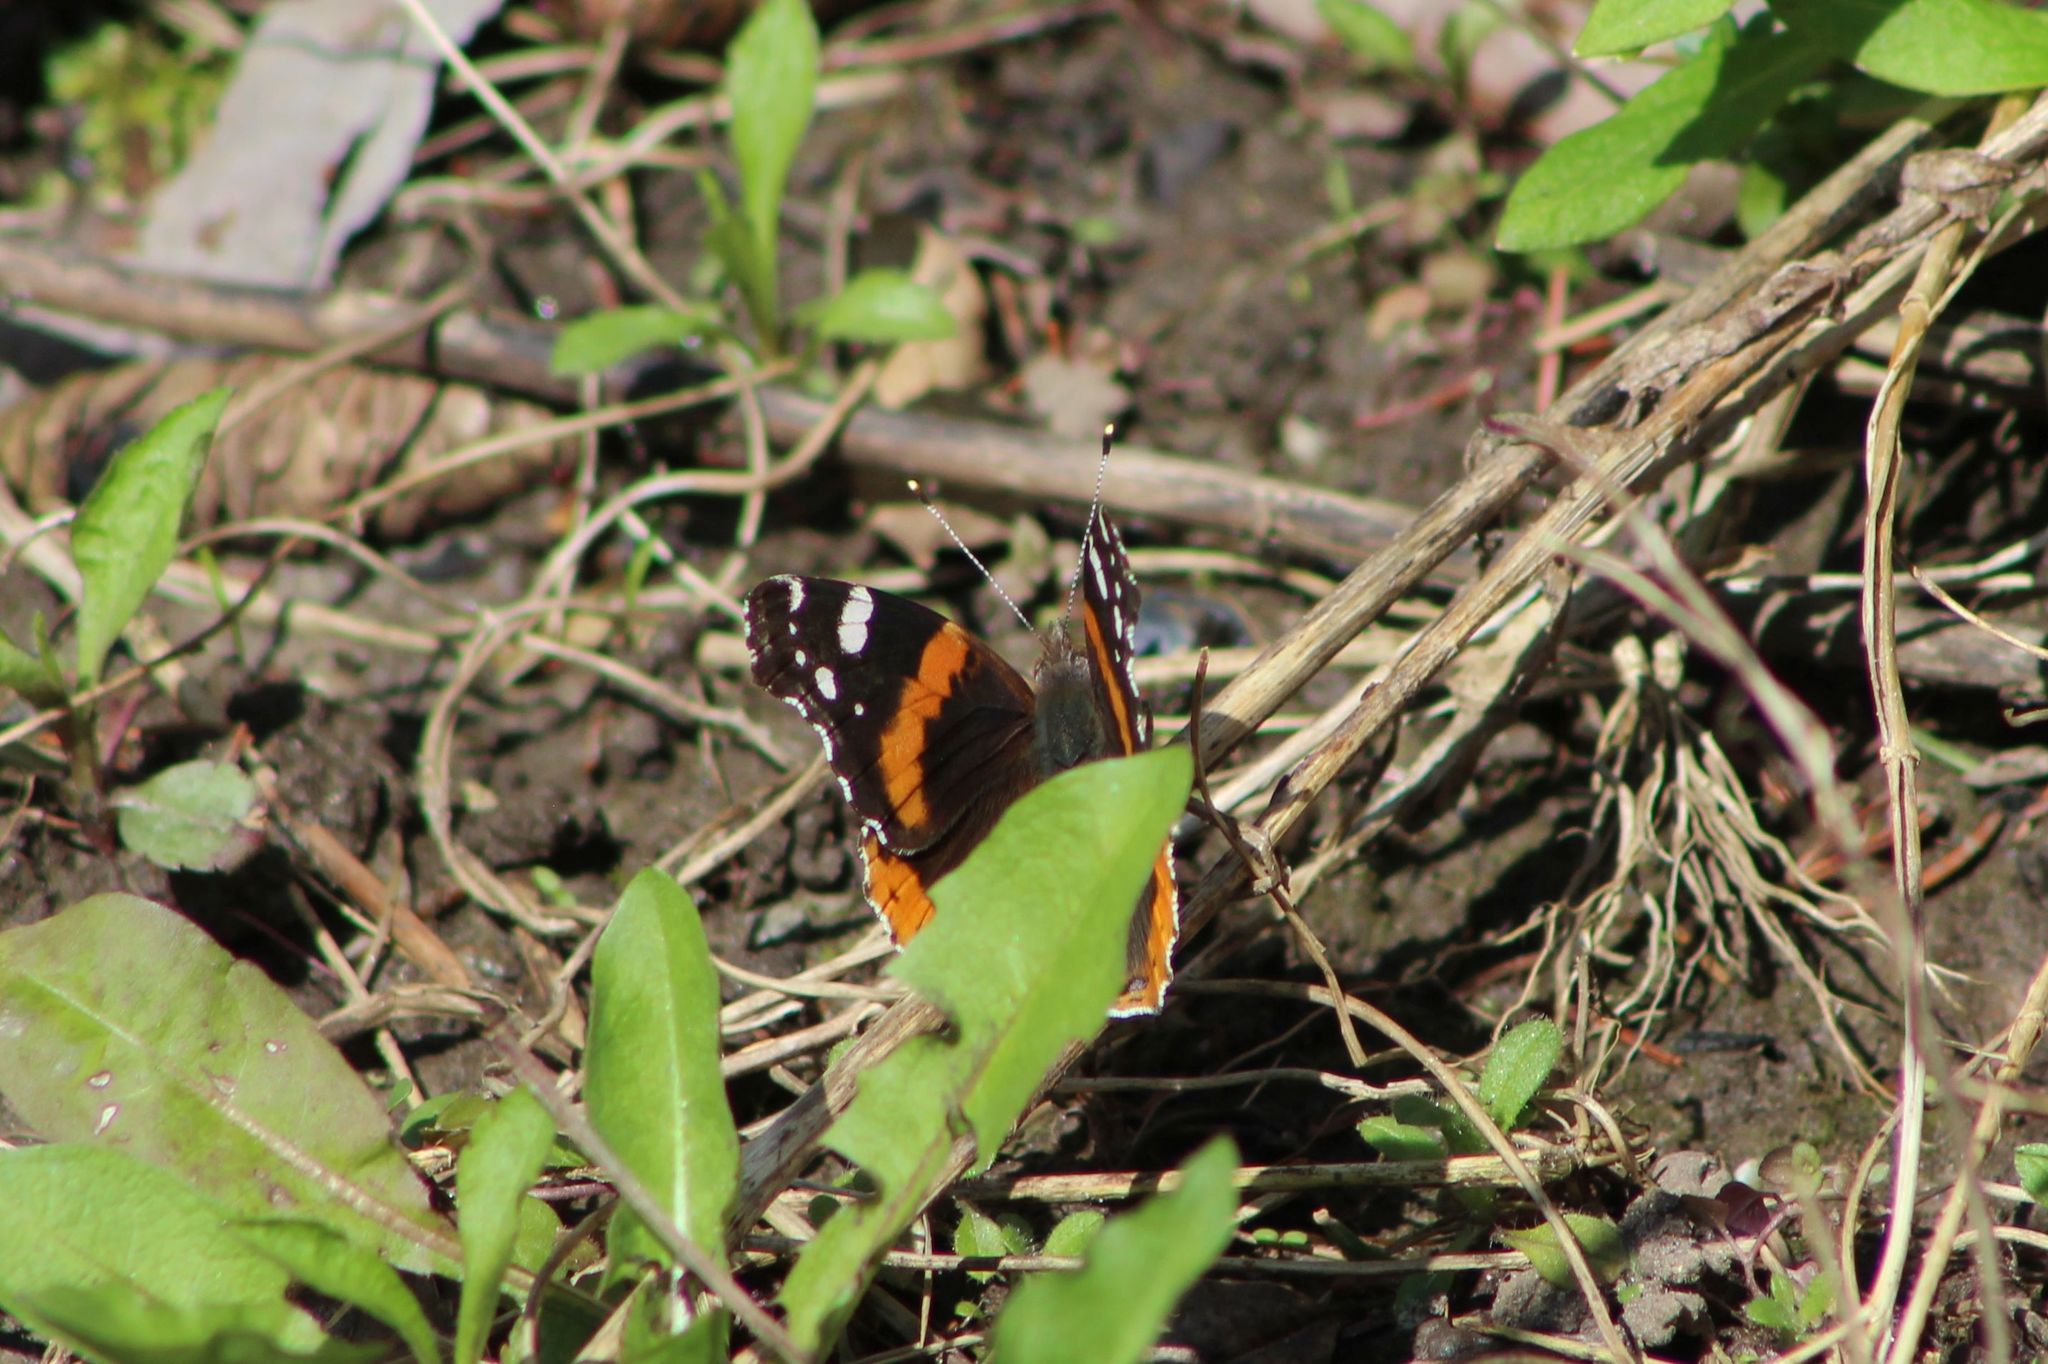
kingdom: Animalia
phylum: Arthropoda
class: Insecta
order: Lepidoptera
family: Nymphalidae
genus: Vanessa
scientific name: Vanessa atalanta
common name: Red admiral
